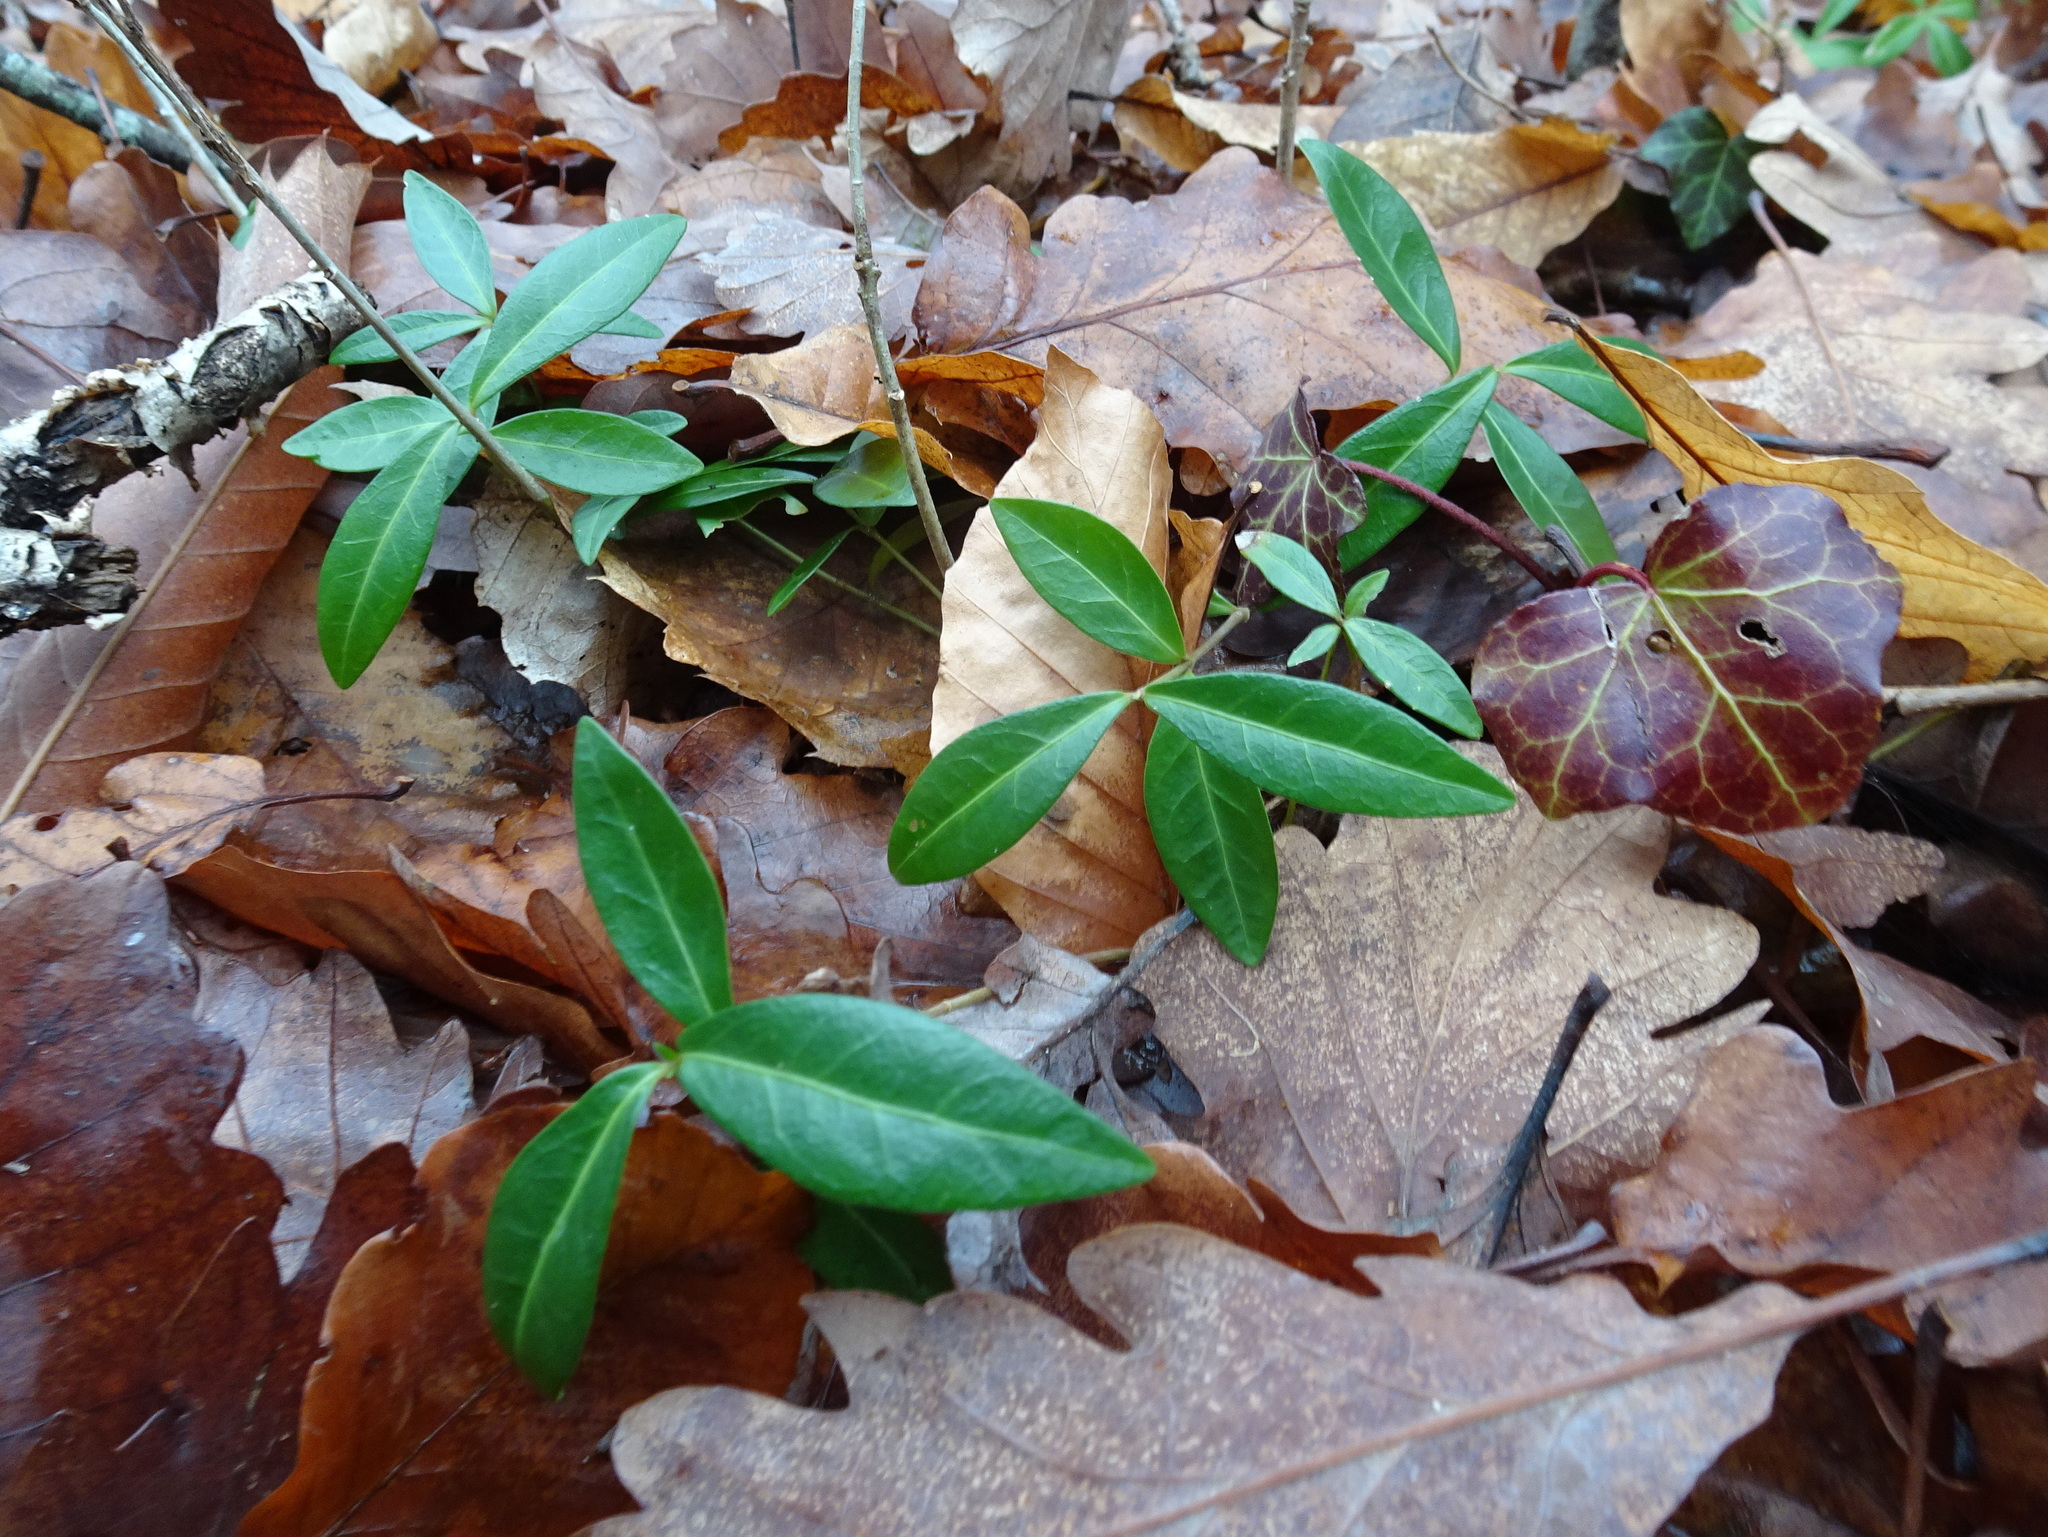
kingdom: Plantae
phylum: Tracheophyta
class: Magnoliopsida
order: Gentianales
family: Apocynaceae
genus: Vinca
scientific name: Vinca minor
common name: Lesser periwinkle
